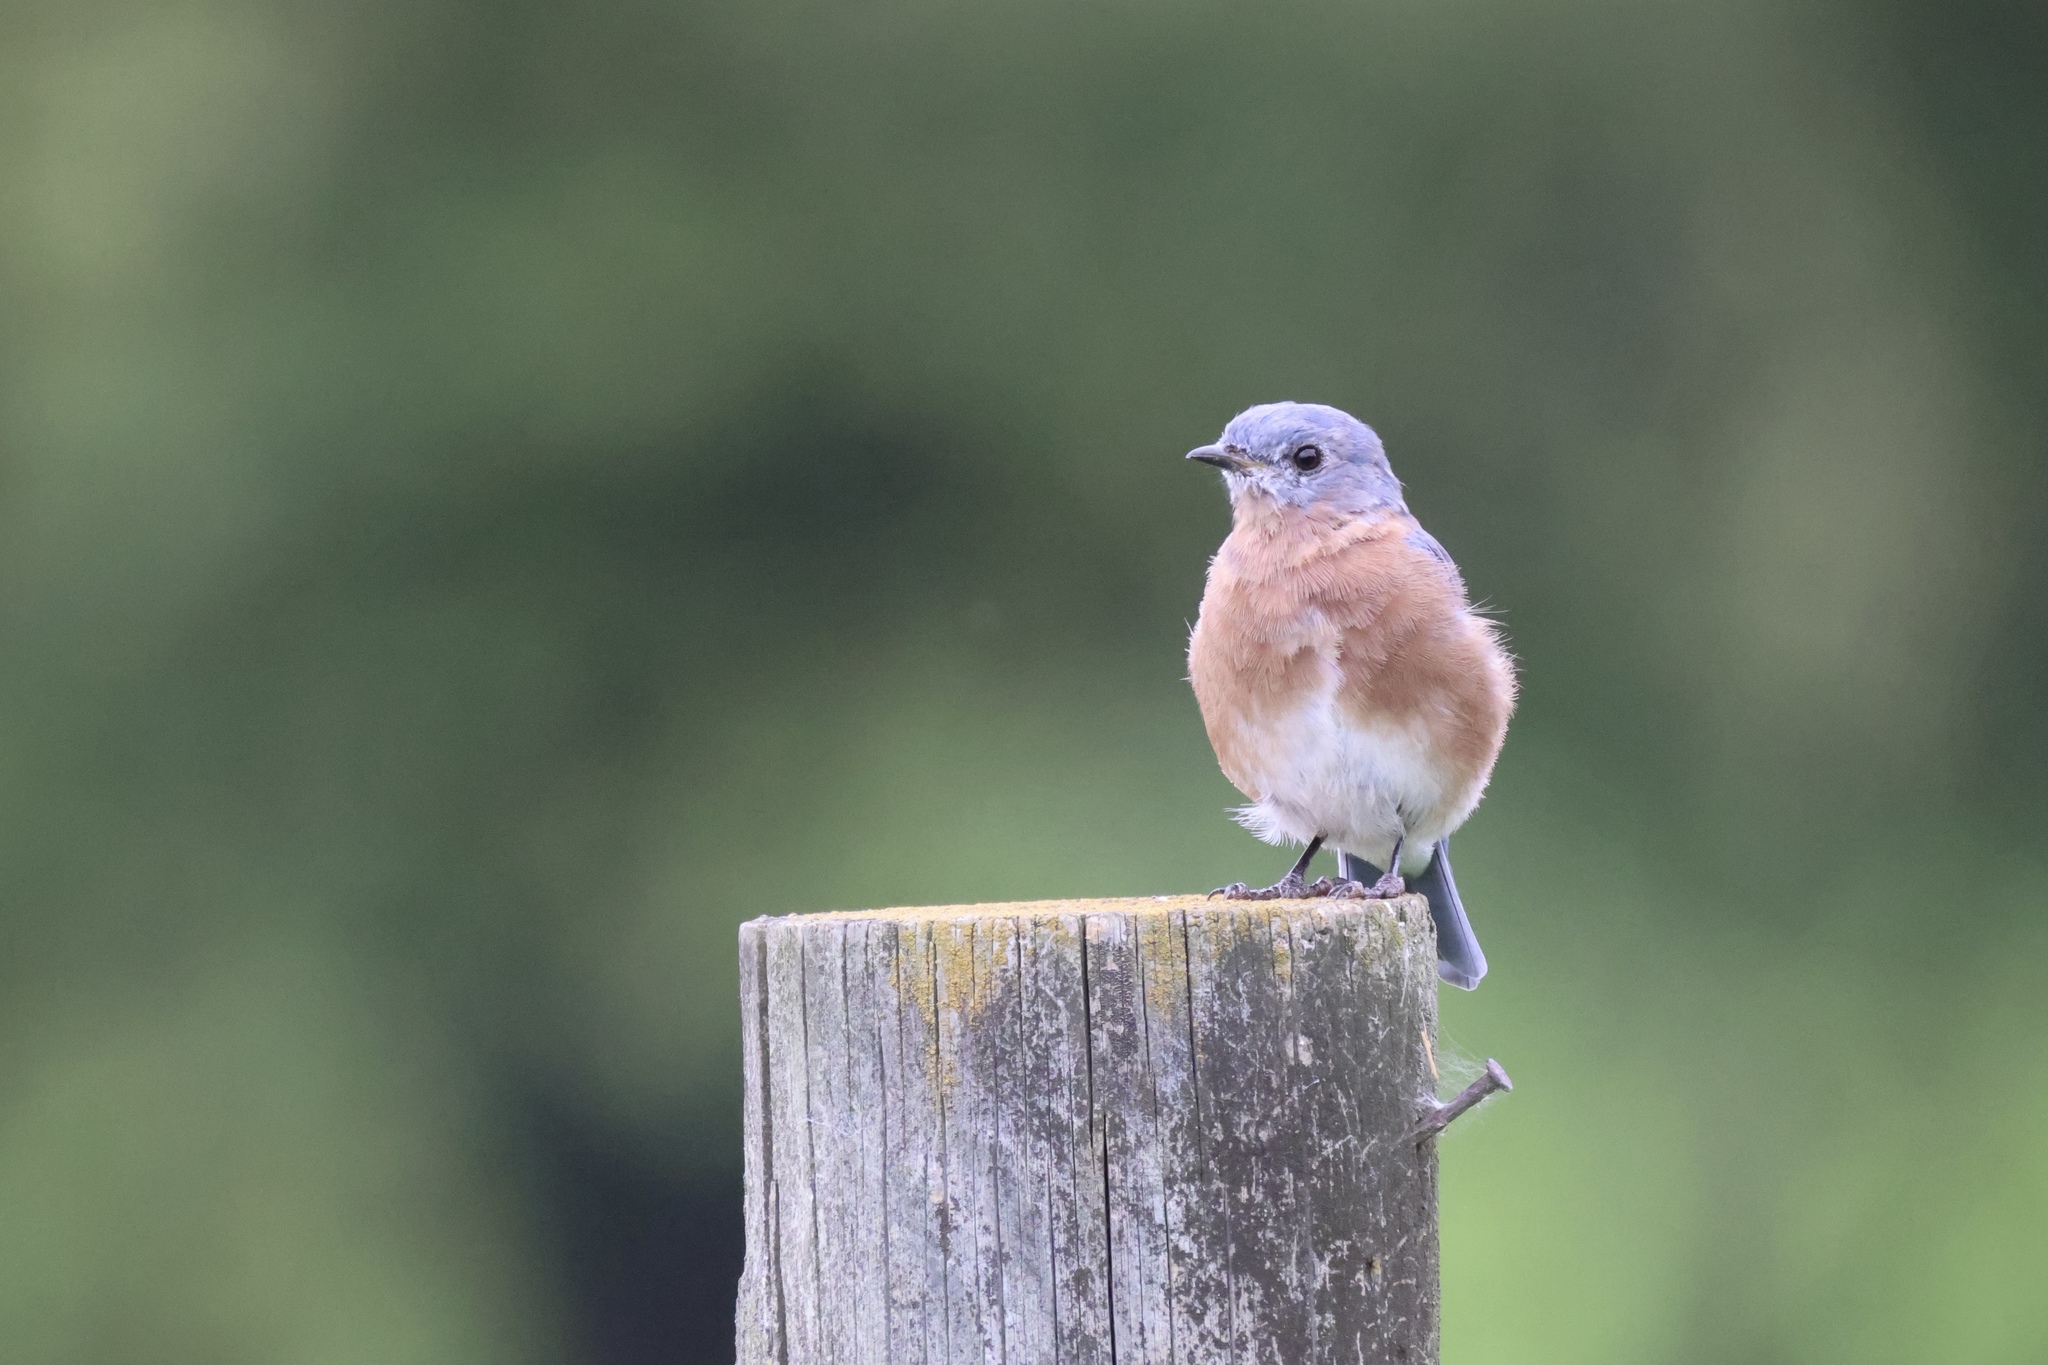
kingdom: Animalia
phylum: Chordata
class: Aves
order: Passeriformes
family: Turdidae
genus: Sialia
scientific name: Sialia sialis
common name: Eastern bluebird
